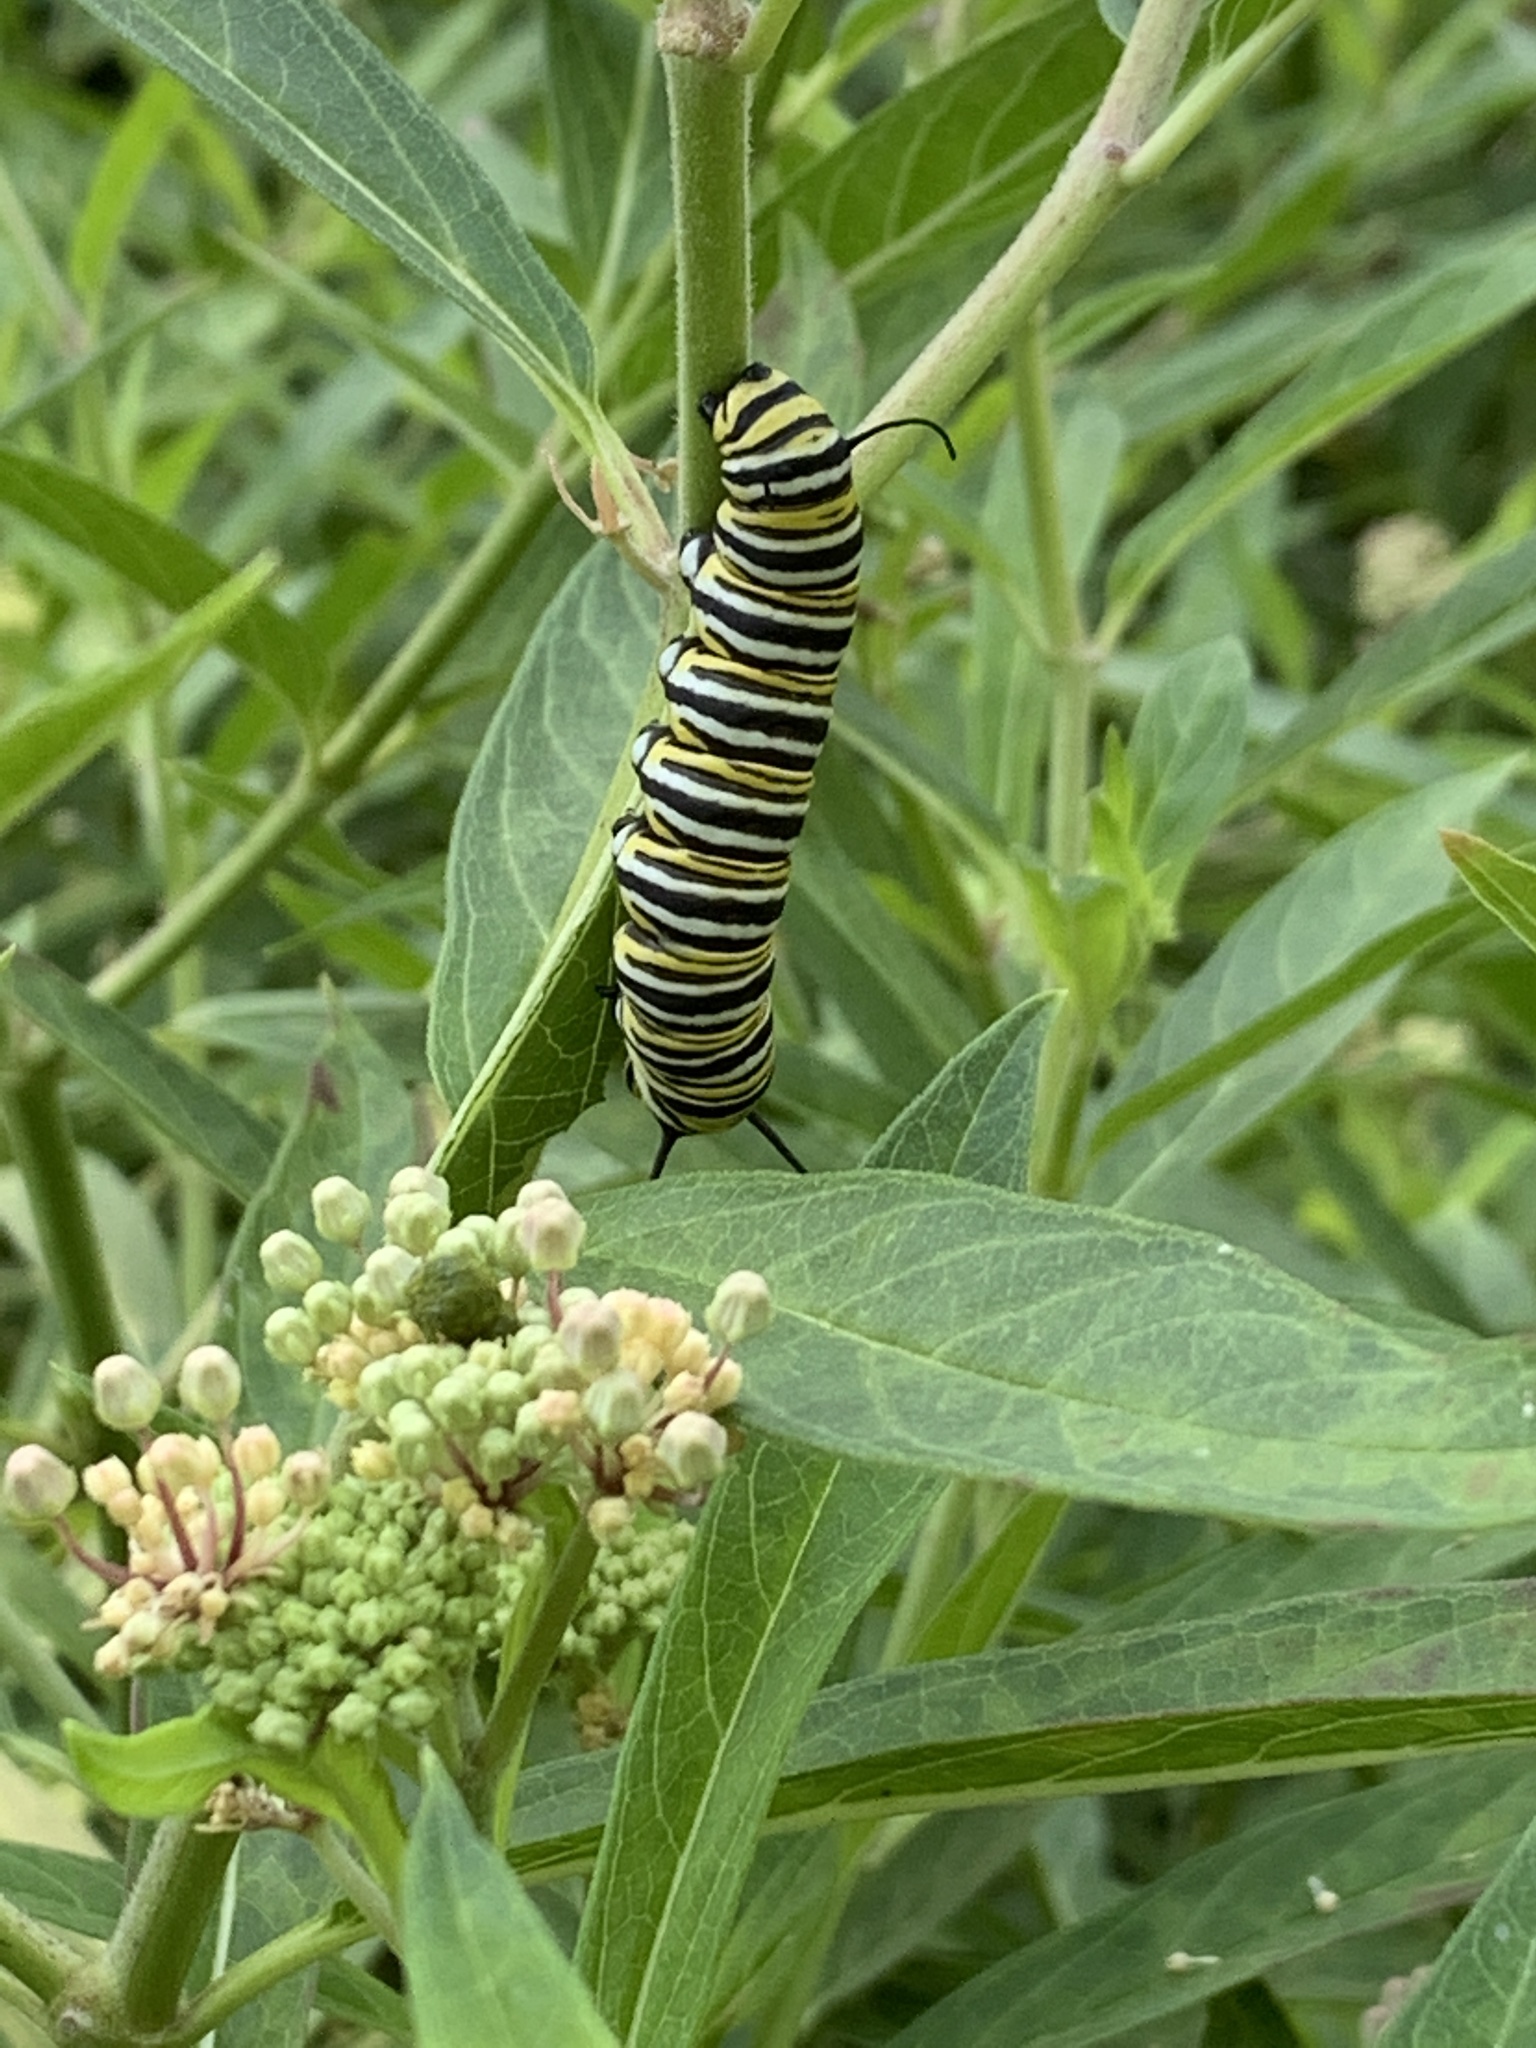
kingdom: Animalia
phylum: Arthropoda
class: Insecta
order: Lepidoptera
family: Nymphalidae
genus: Danaus
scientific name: Danaus plexippus
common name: Monarch
